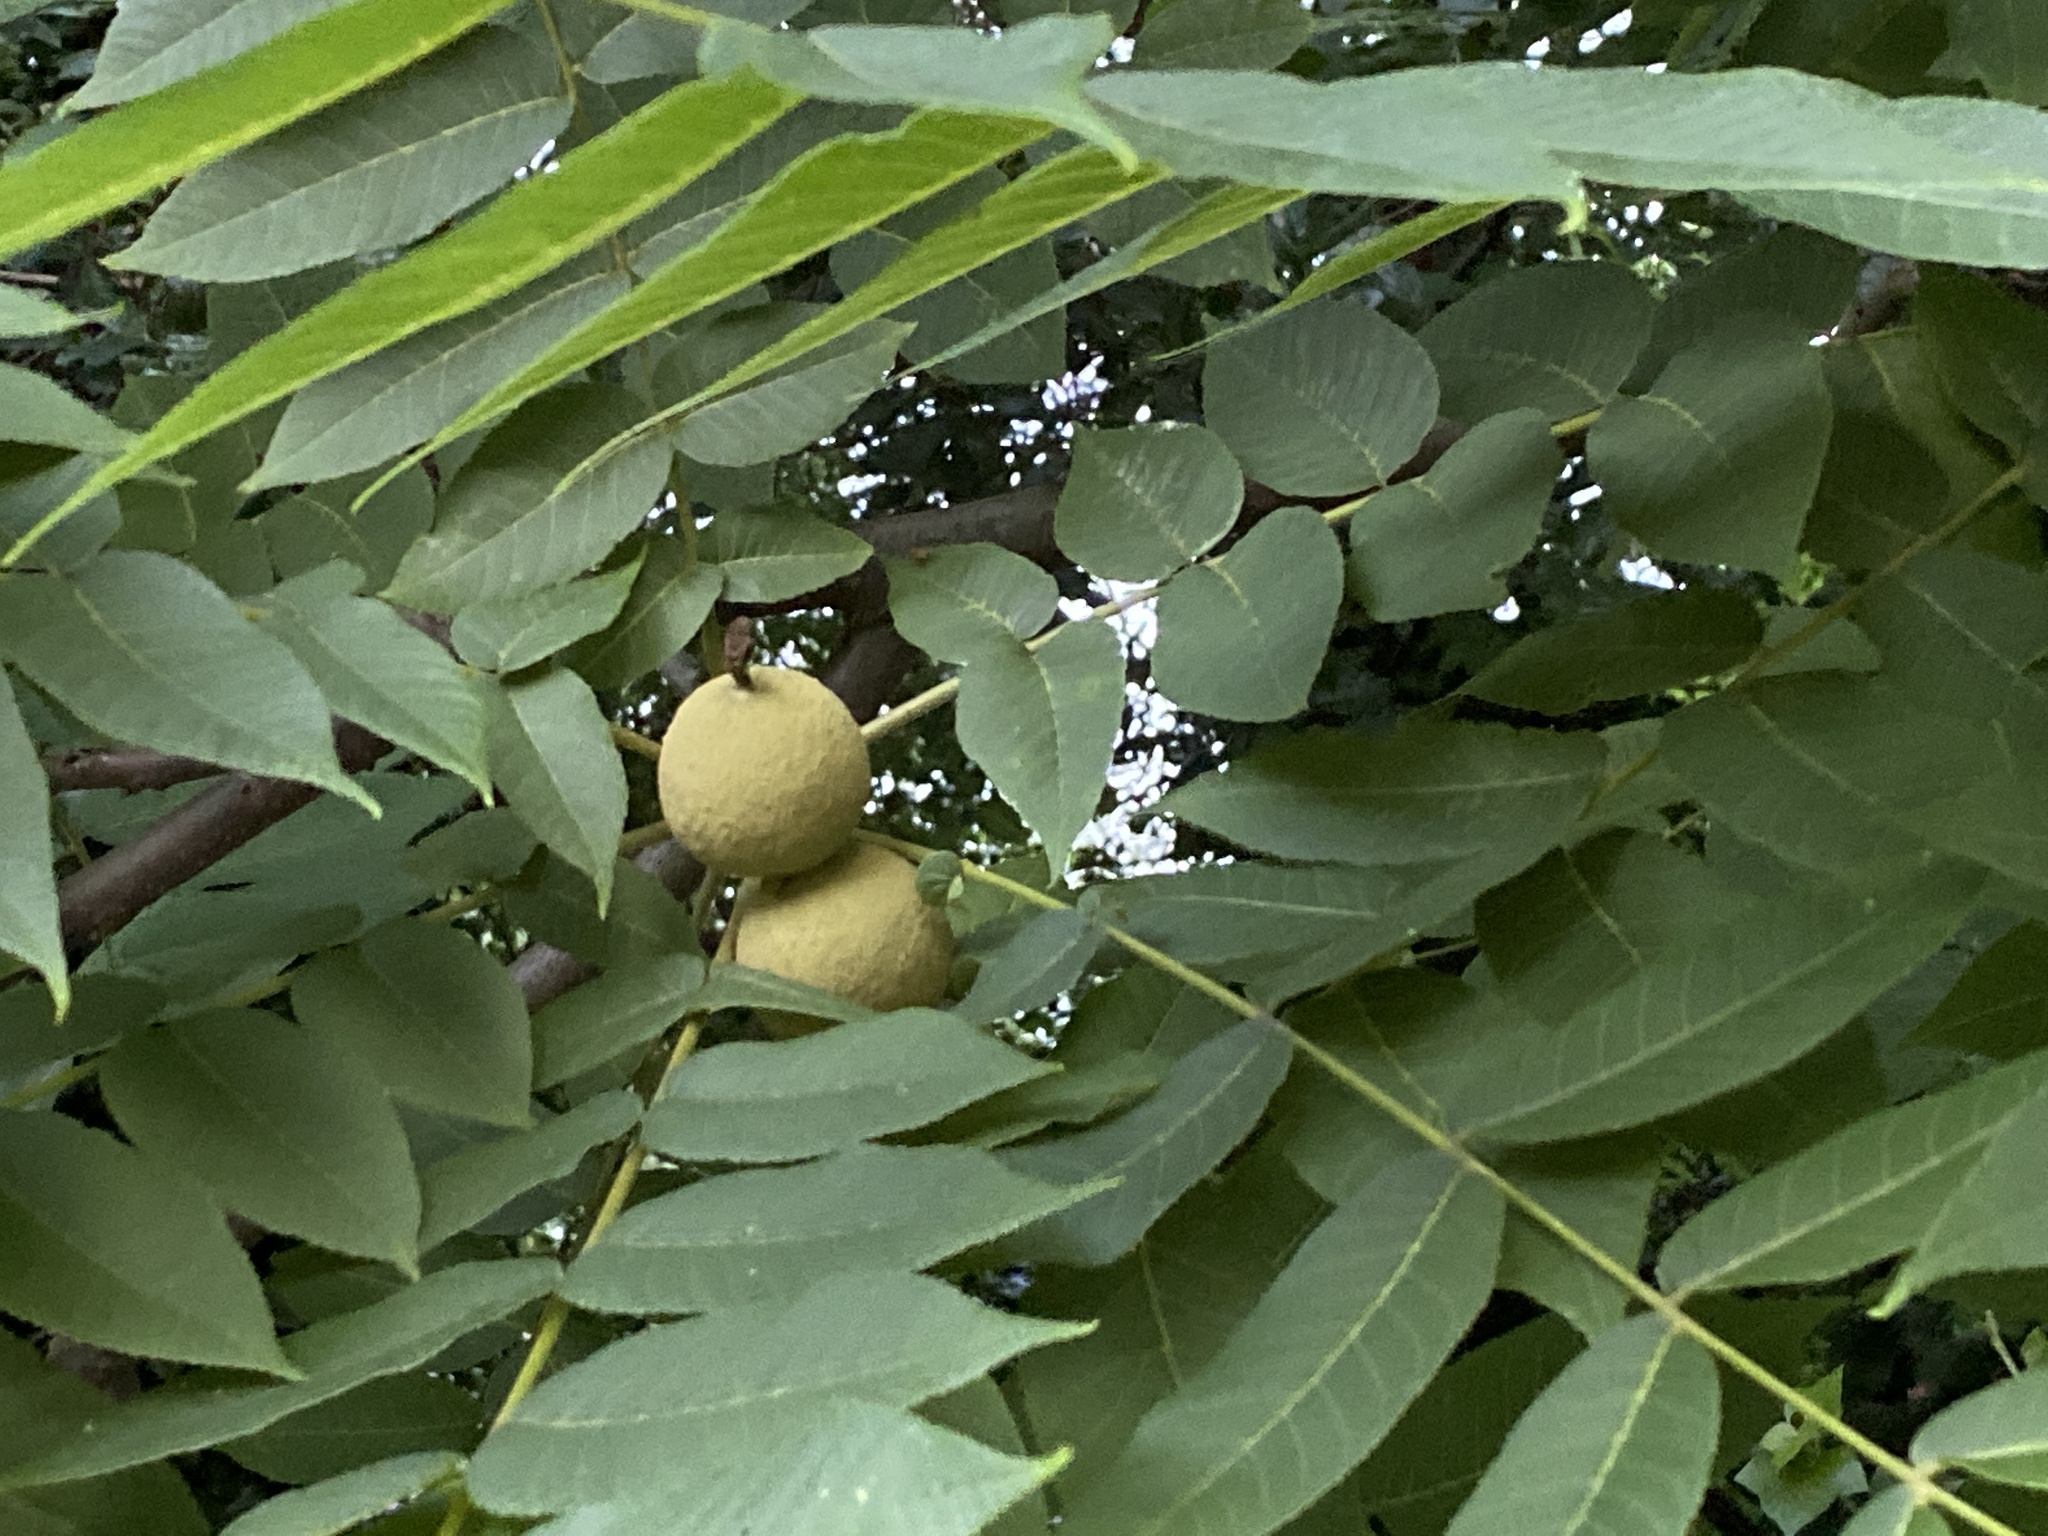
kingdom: Plantae
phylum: Tracheophyta
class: Magnoliopsida
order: Fagales
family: Juglandaceae
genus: Juglans
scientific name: Juglans nigra
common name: Black walnut
